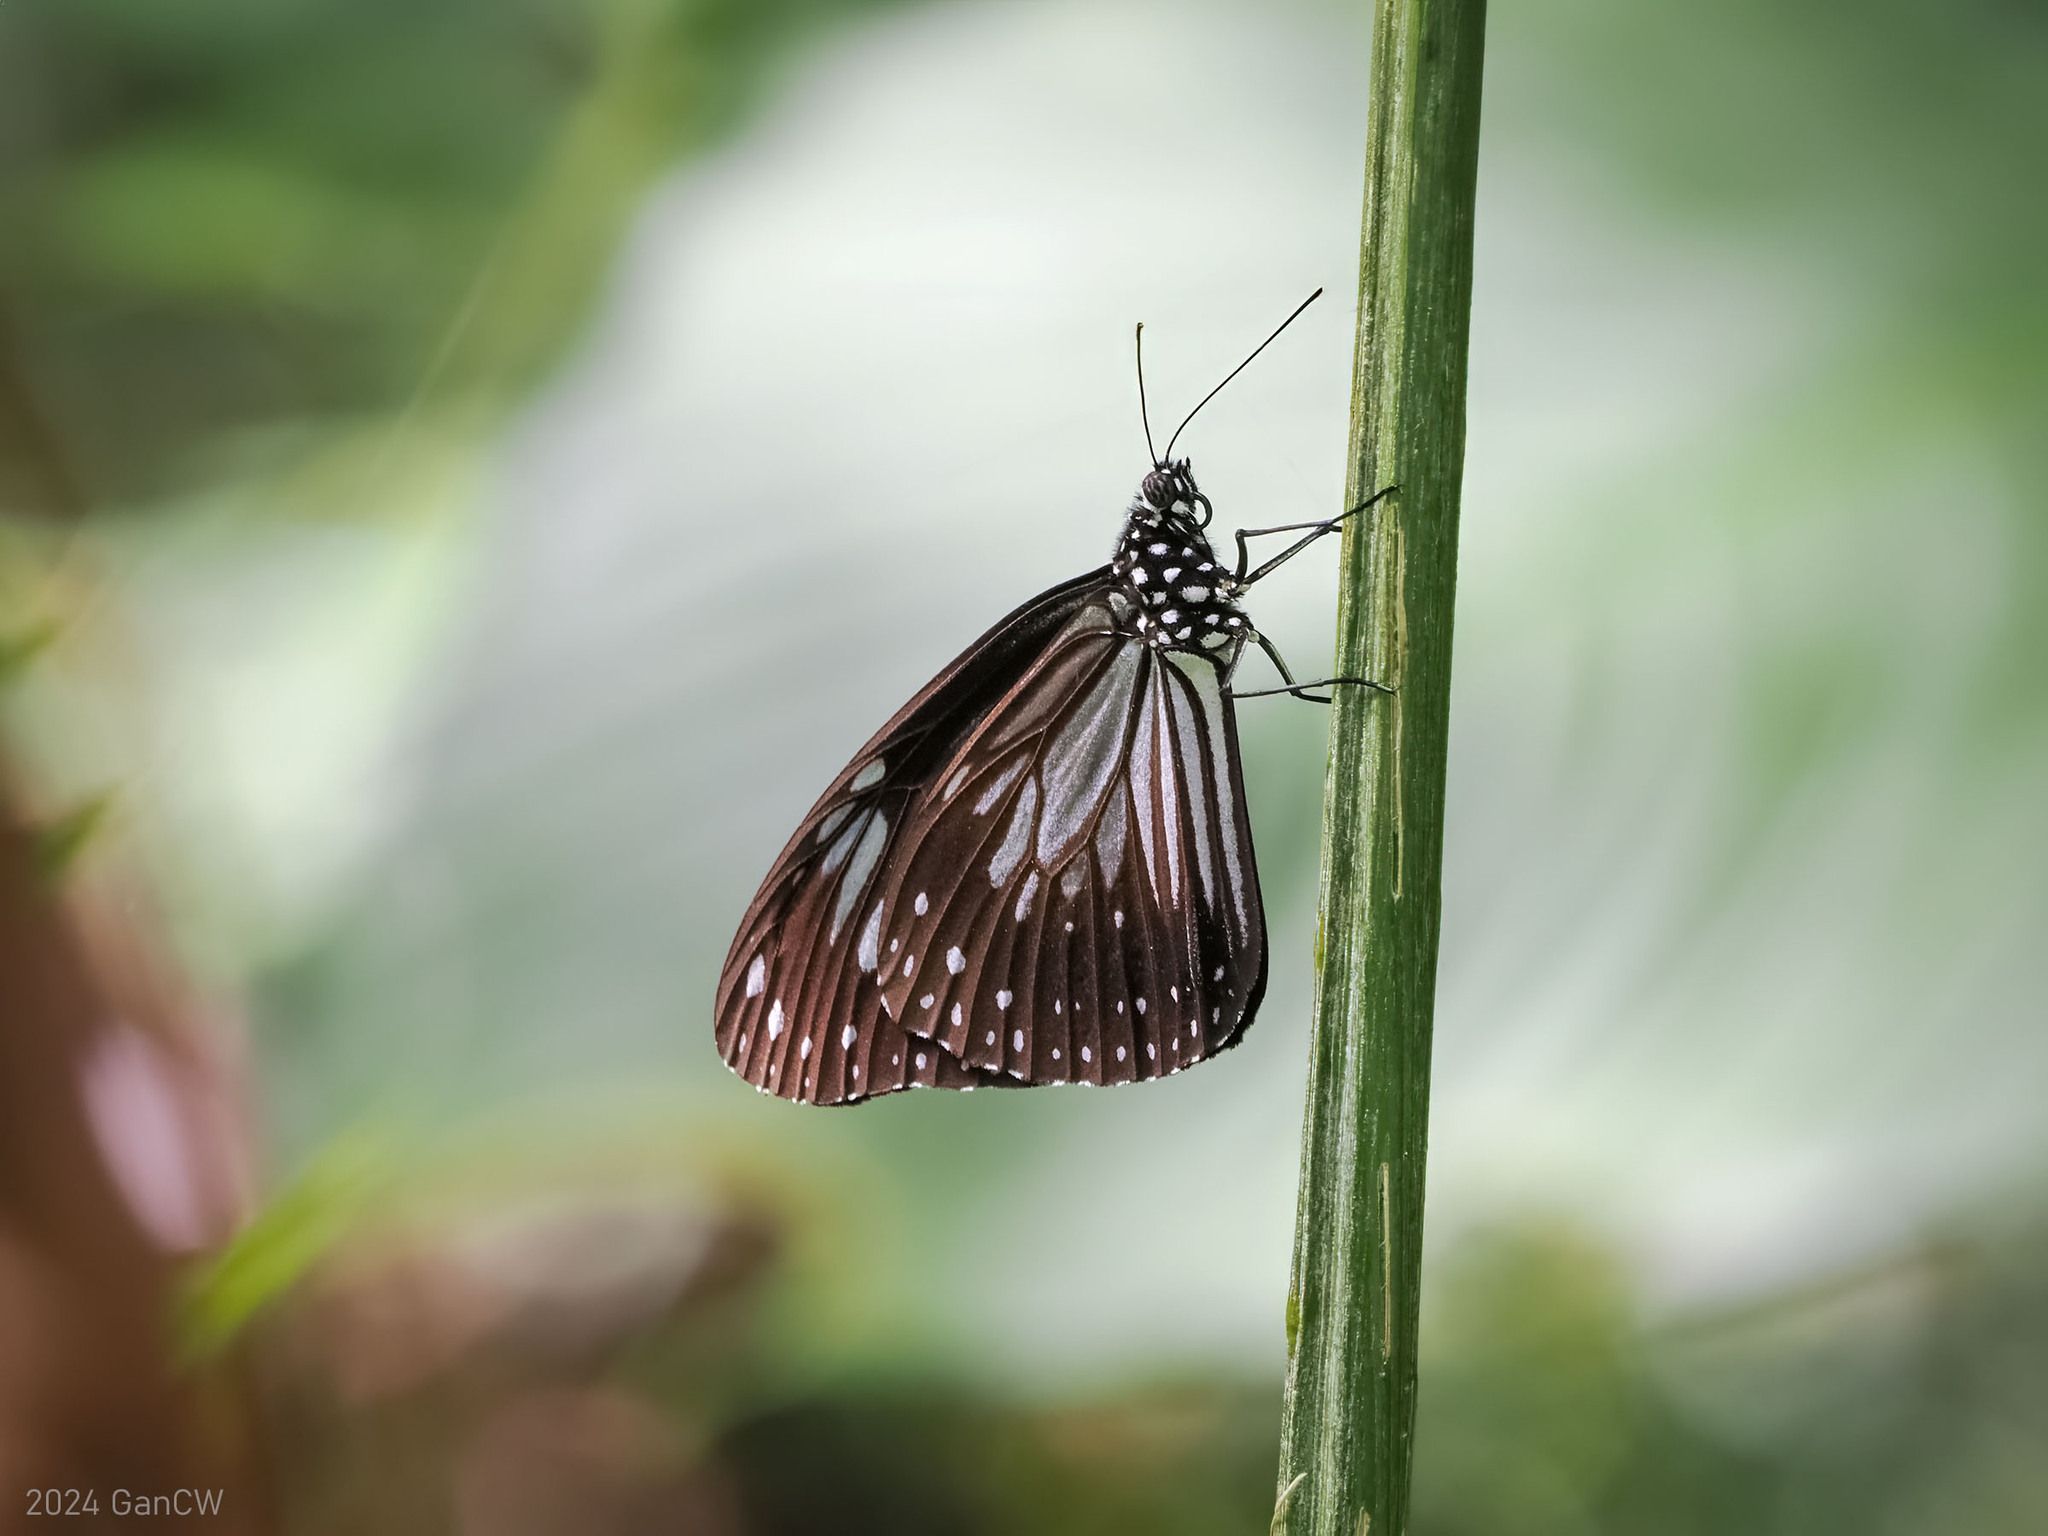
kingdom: Animalia
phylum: Arthropoda
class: Insecta
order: Lepidoptera
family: Nymphalidae
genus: Parantica
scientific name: Parantica luzonensis
